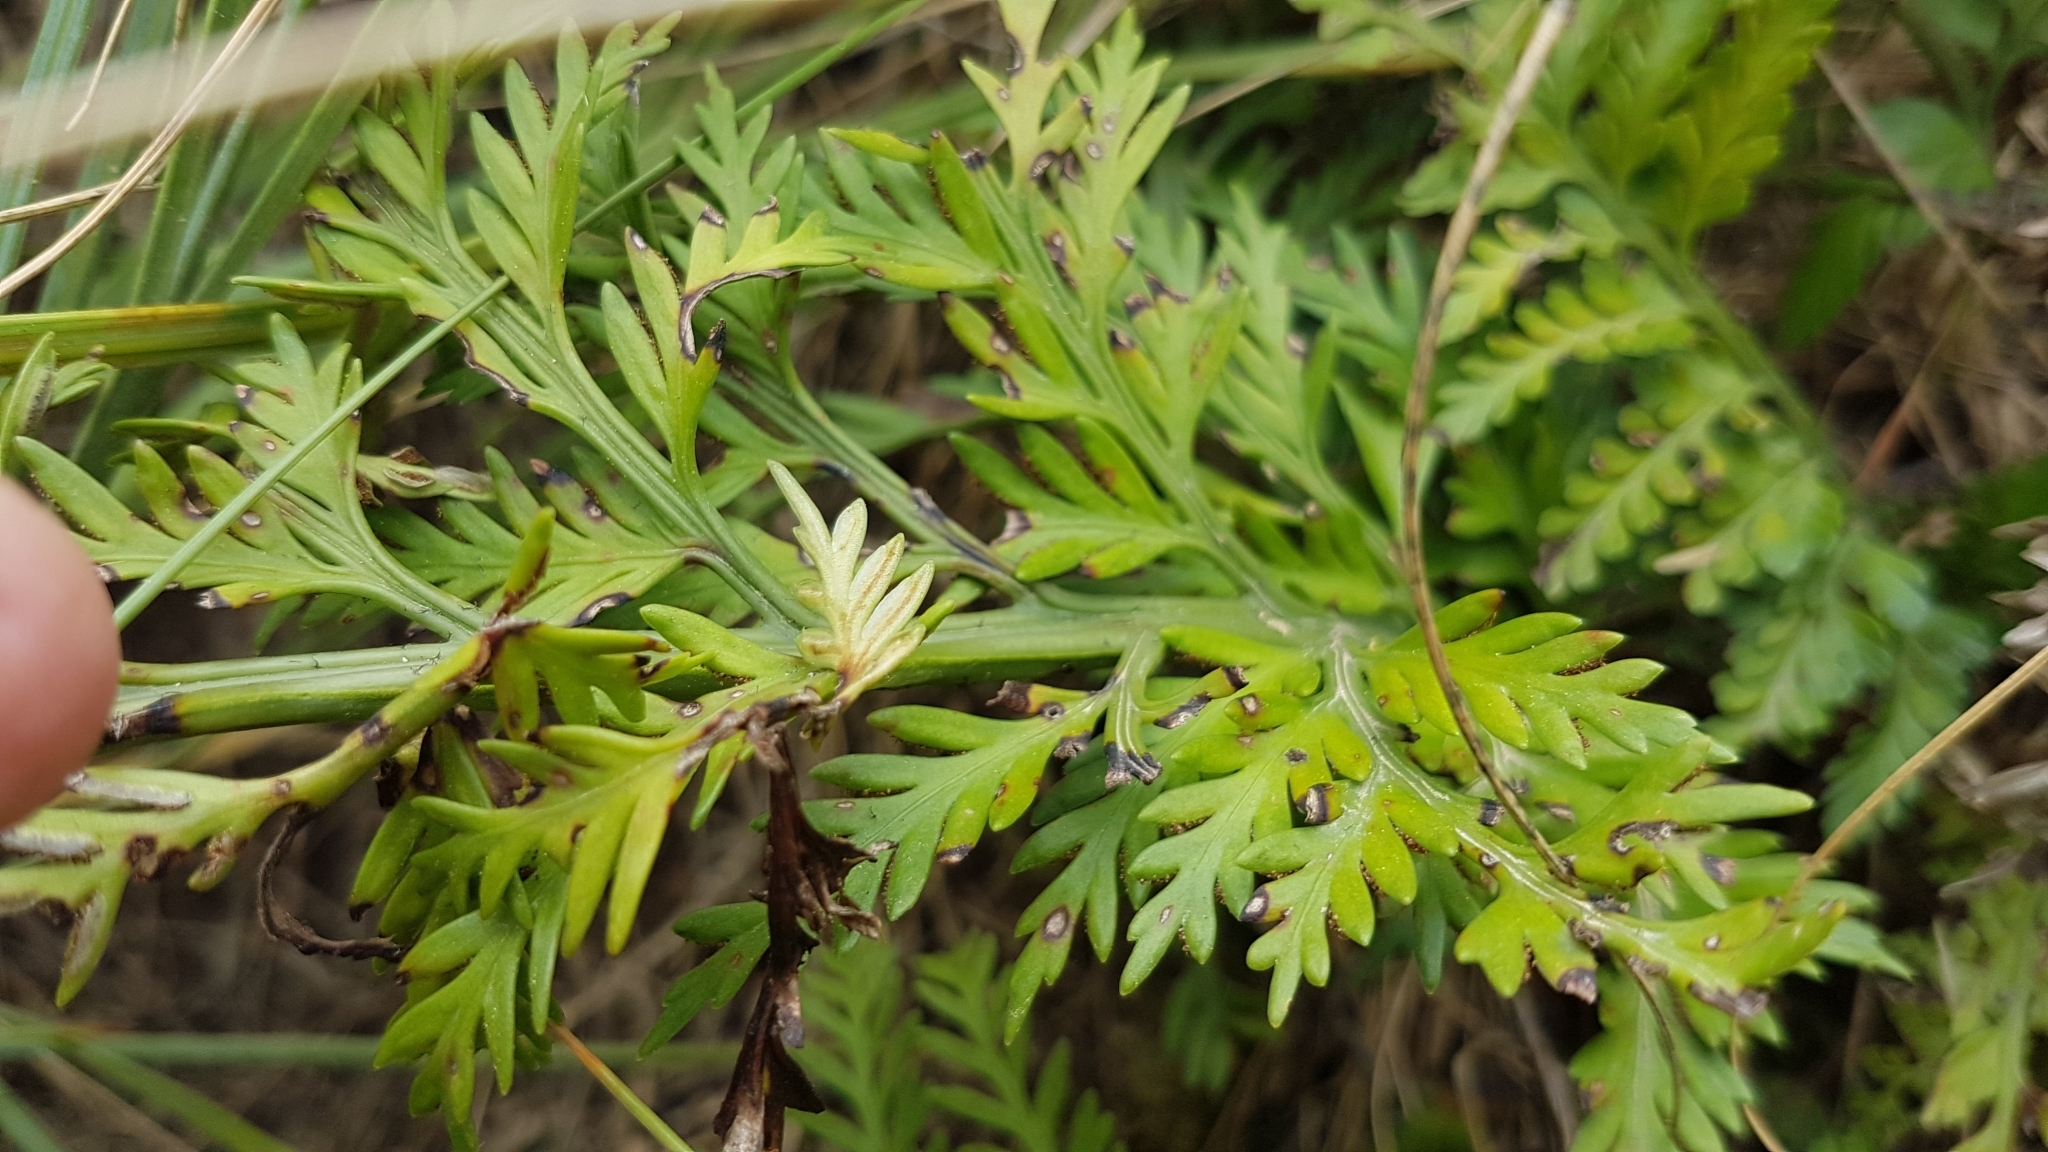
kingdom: Plantae
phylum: Tracheophyta
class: Polypodiopsida
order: Polypodiales
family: Aspleniaceae
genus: Asplenium
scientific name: Asplenium appendiculatum
